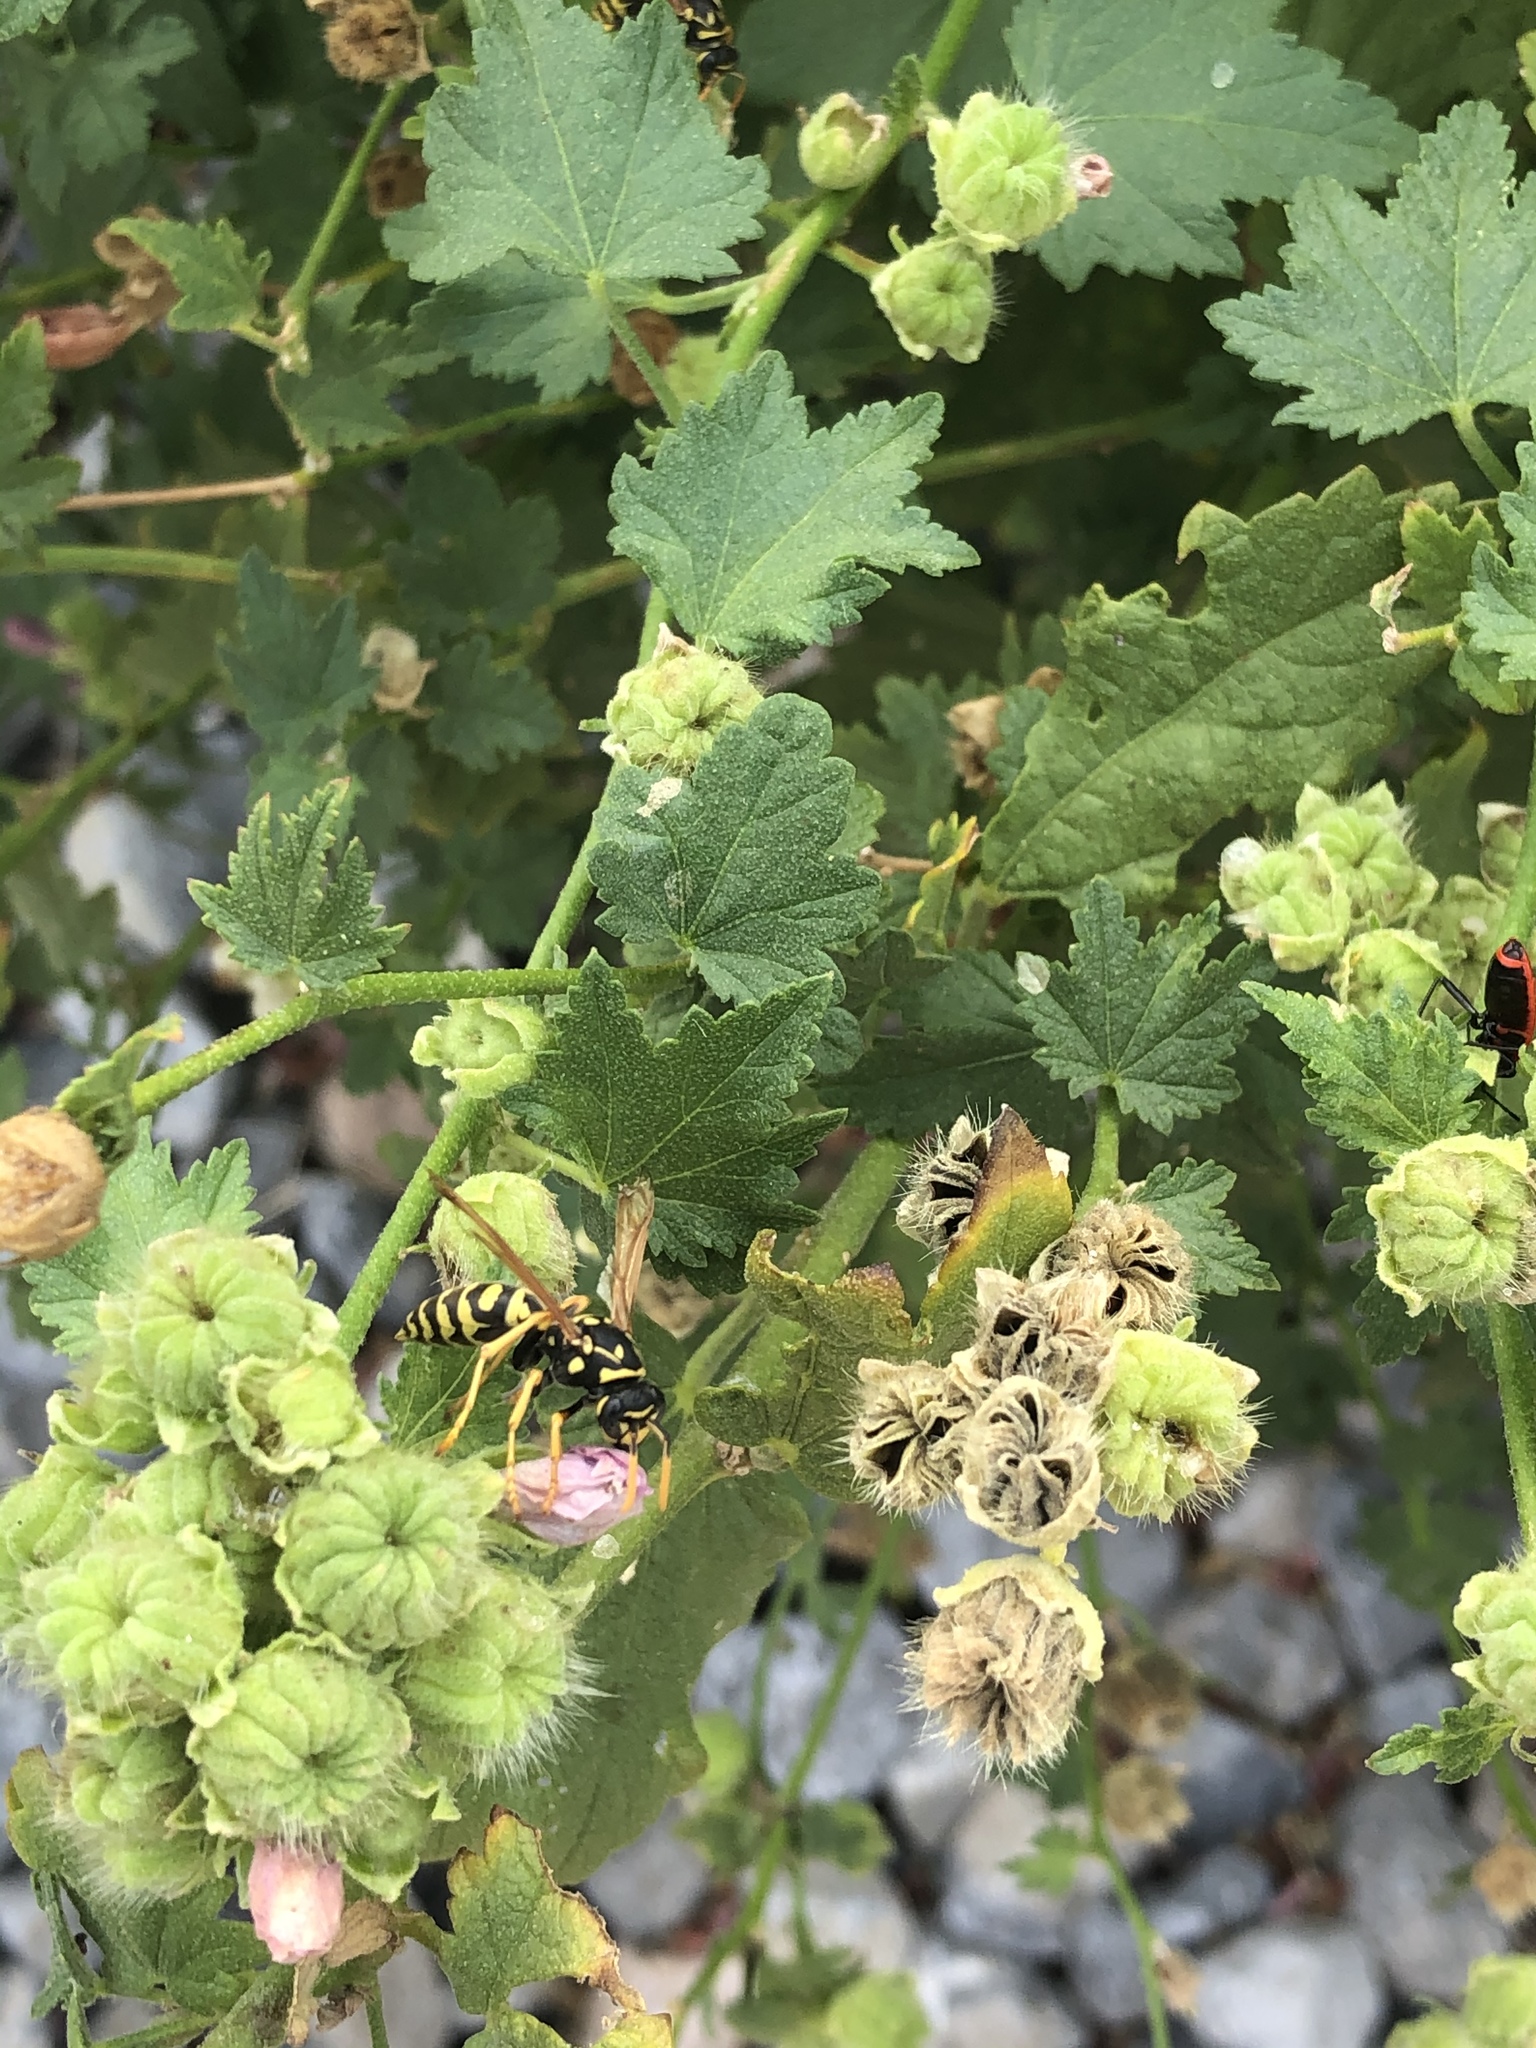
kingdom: Animalia
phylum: Arthropoda
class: Insecta
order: Hymenoptera
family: Eumenidae
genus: Polistes
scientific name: Polistes dominula
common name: Paper wasp
